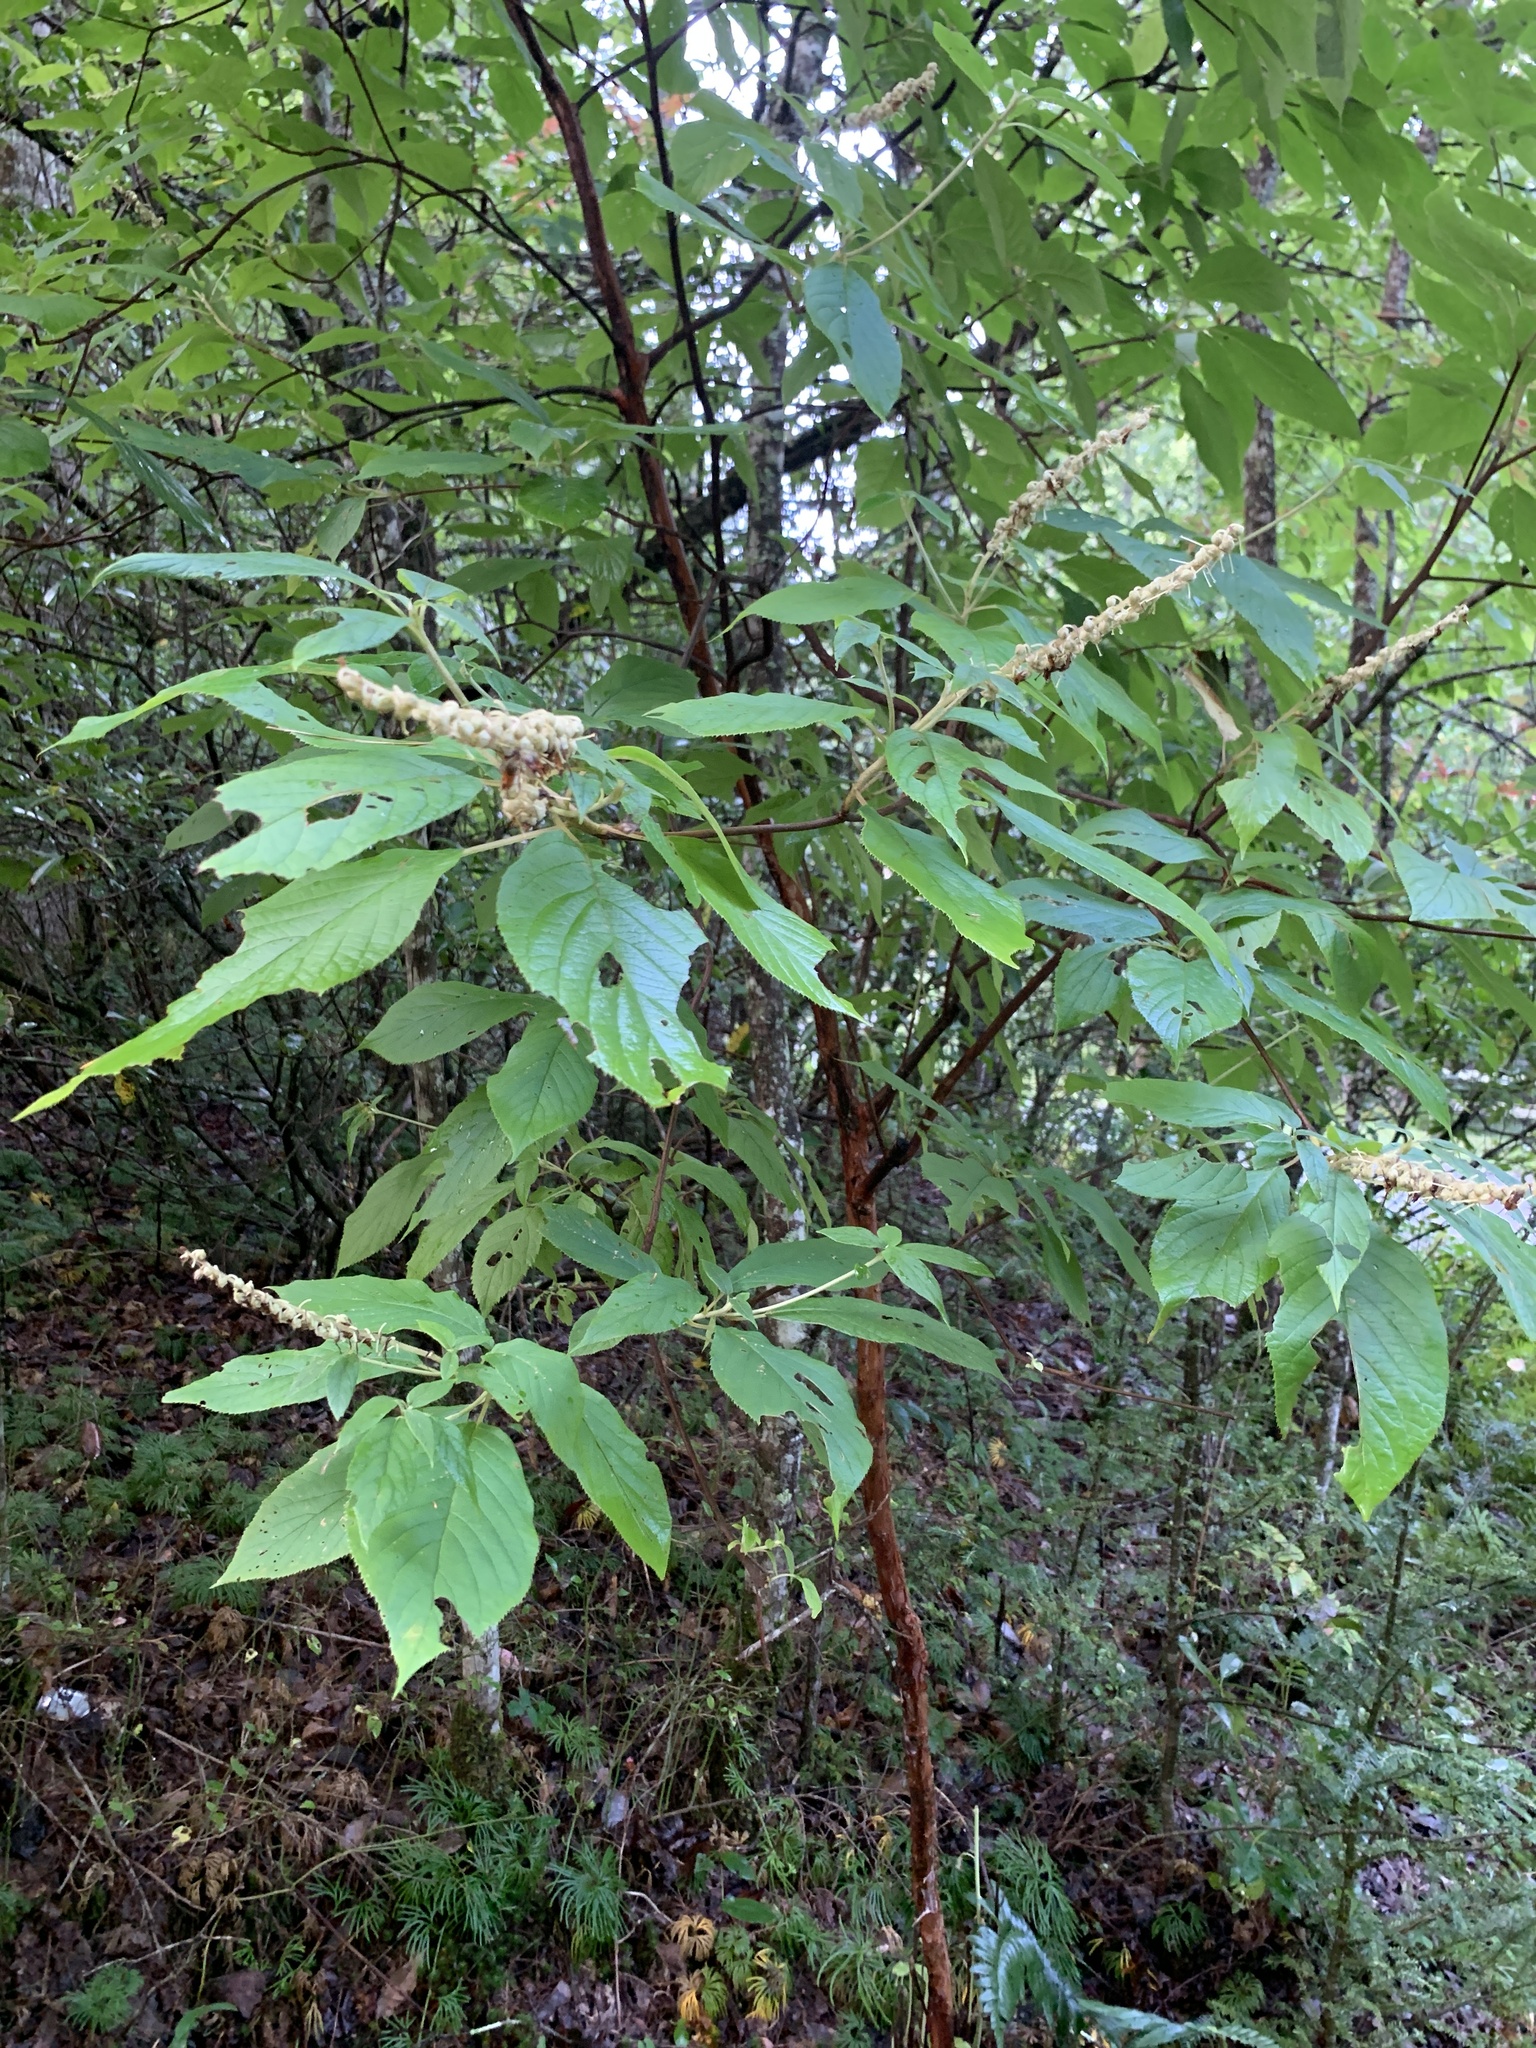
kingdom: Plantae
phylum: Tracheophyta
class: Magnoliopsida
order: Ericales
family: Clethraceae
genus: Clethra
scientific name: Clethra acuminata
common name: Mountain sweet pepperbush
